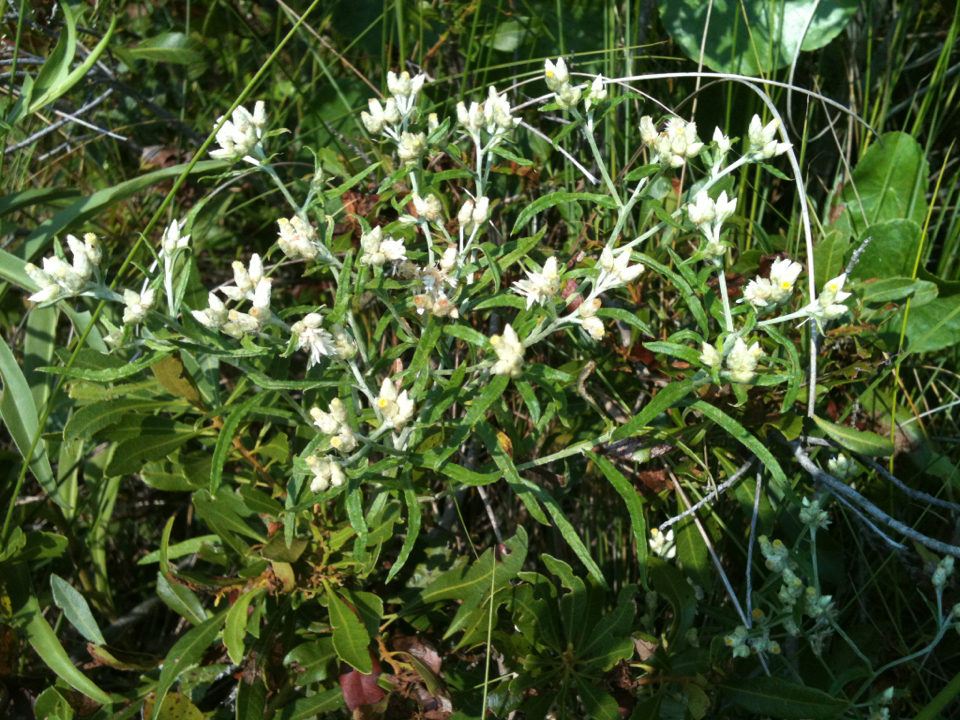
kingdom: Plantae
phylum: Tracheophyta
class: Magnoliopsida
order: Asterales
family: Asteraceae
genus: Pseudognaphalium
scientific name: Pseudognaphalium obtusifolium
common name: Eastern rabbit-tobacco
